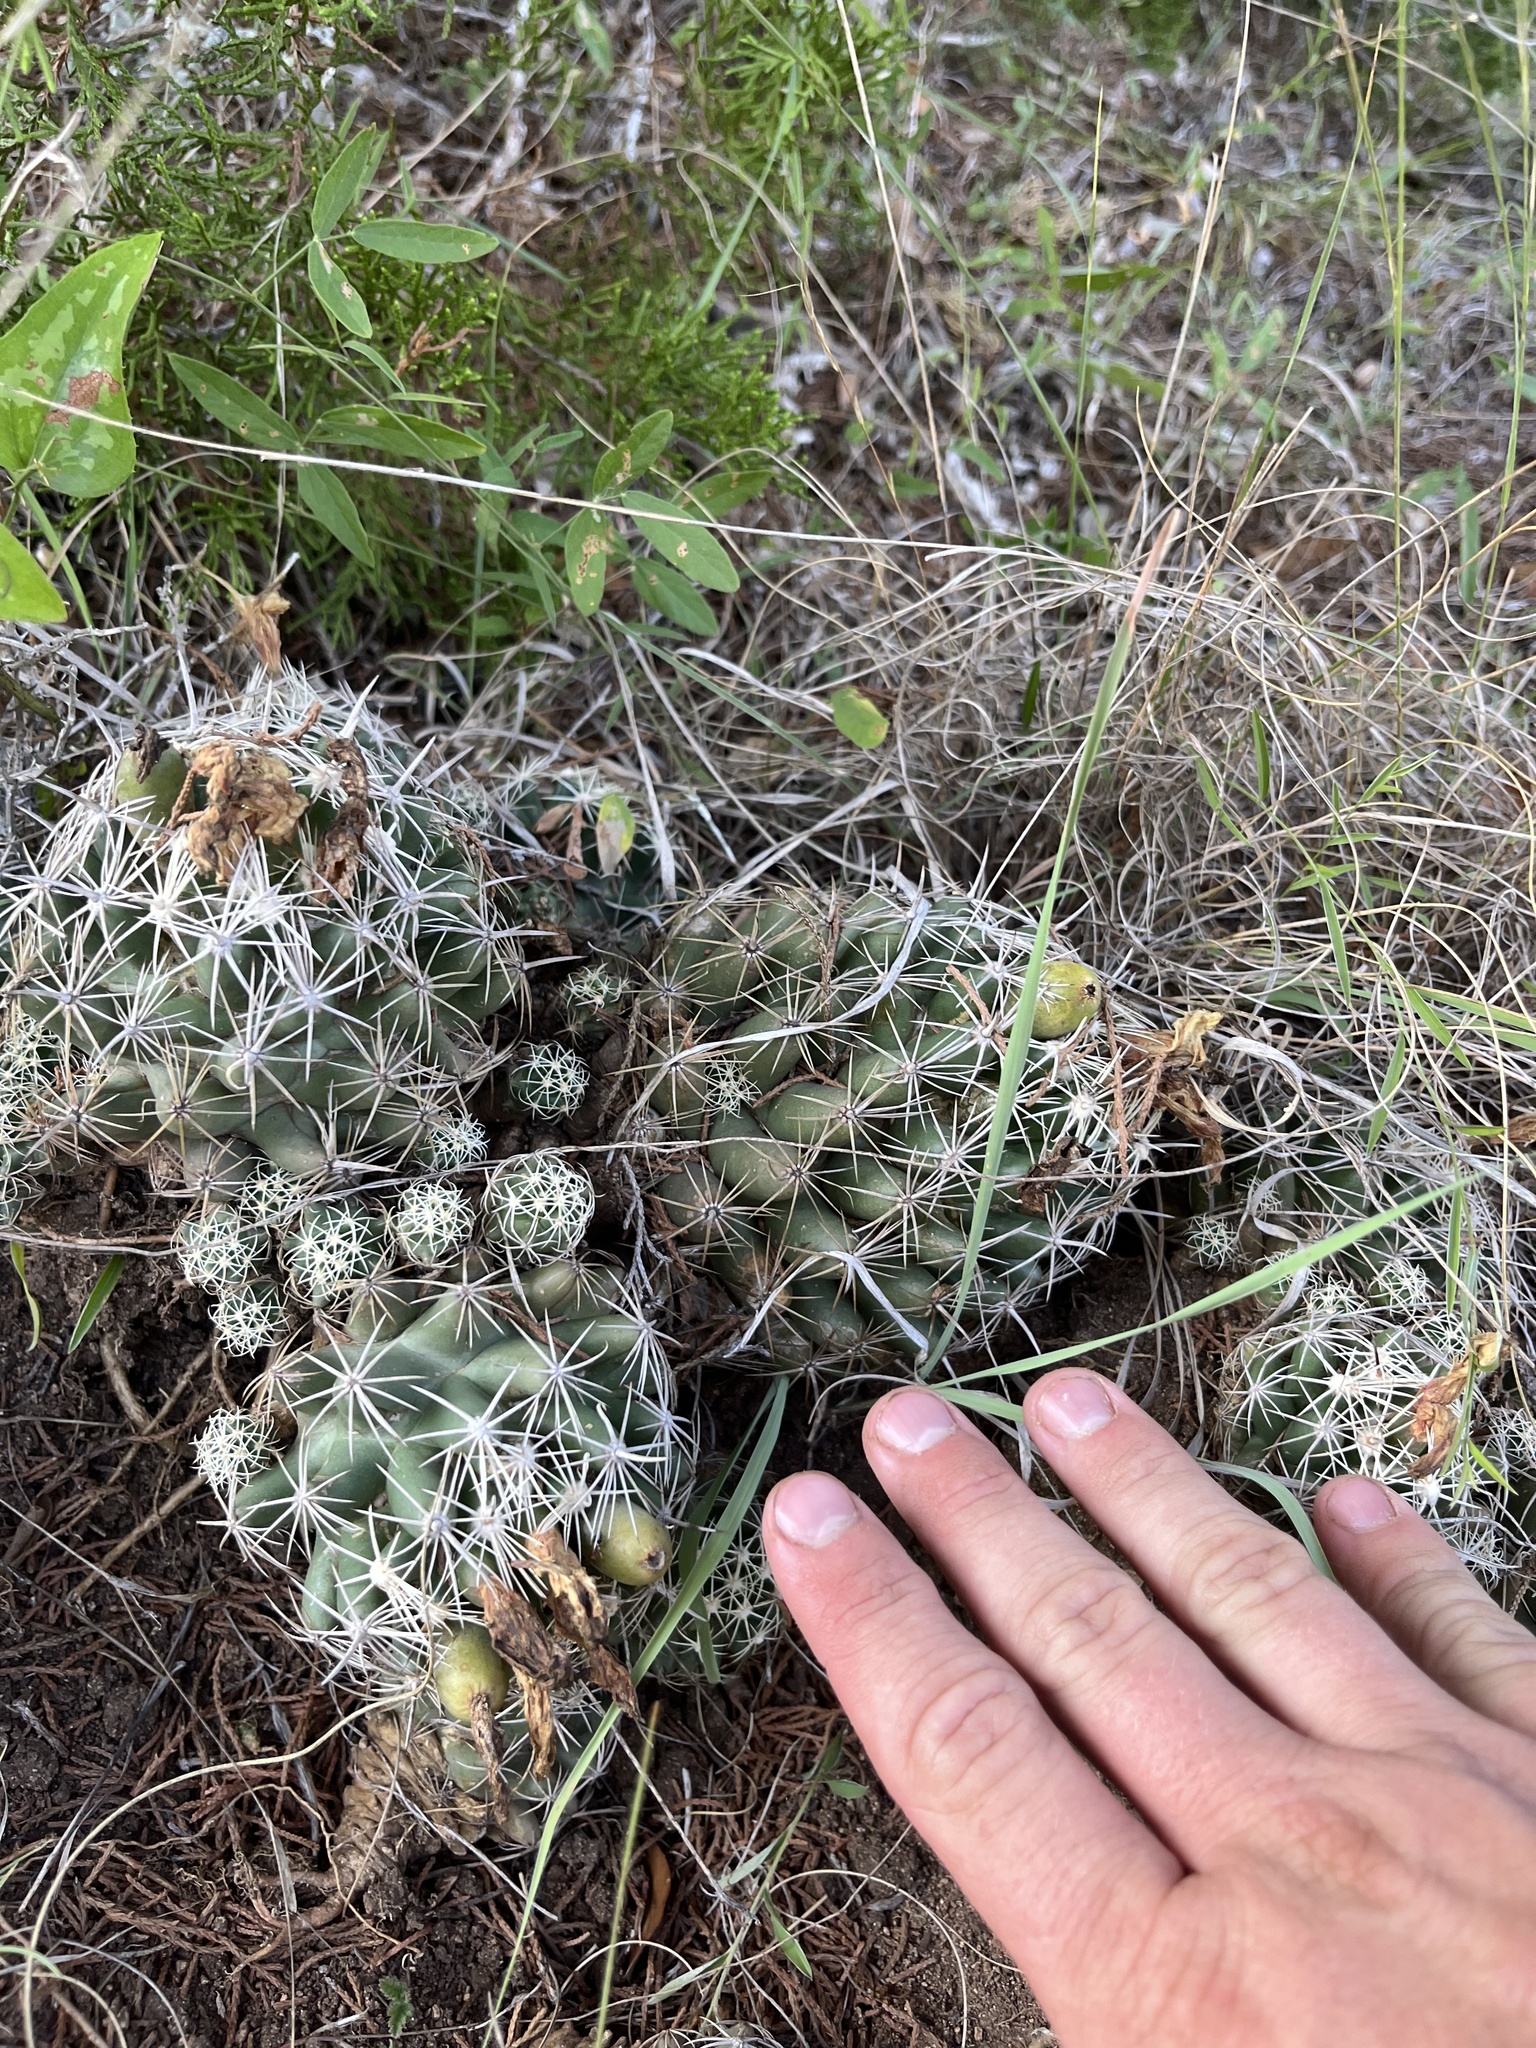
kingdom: Plantae
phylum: Tracheophyta
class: Magnoliopsida
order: Caryophyllales
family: Cactaceae
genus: Coryphantha
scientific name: Coryphantha sulcata
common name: Finger cactus
